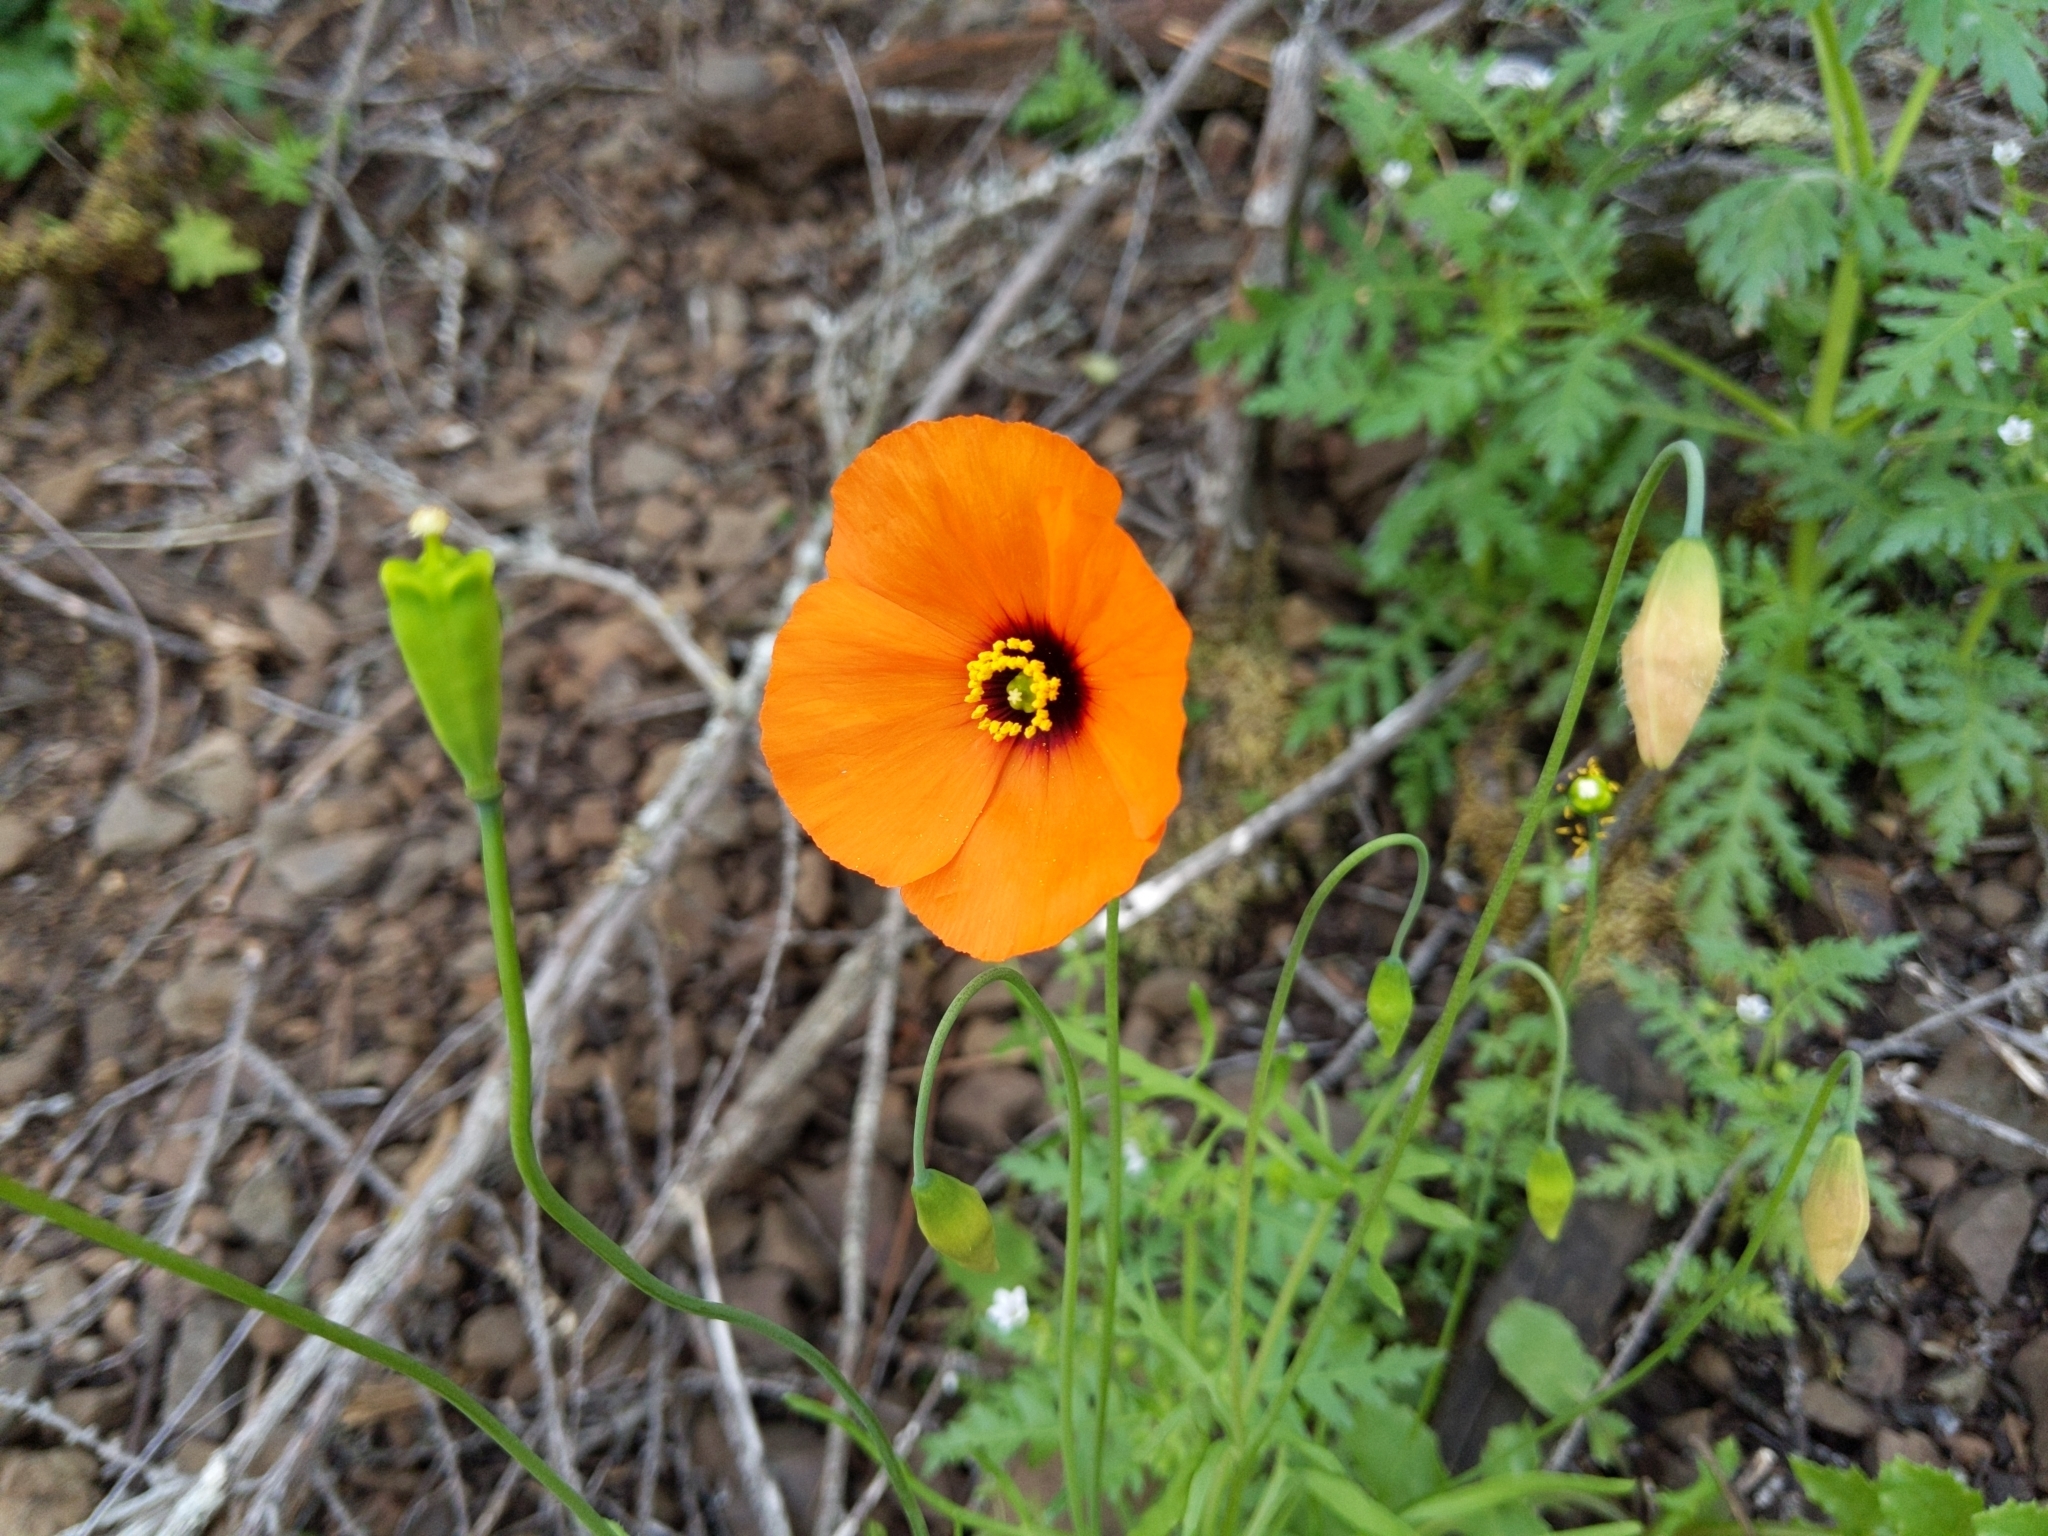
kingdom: Plantae
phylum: Tracheophyta
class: Magnoliopsida
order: Ranunculales
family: Papaveraceae
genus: Stylomecon
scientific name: Stylomecon heterophylla
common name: Flaming-poppy
